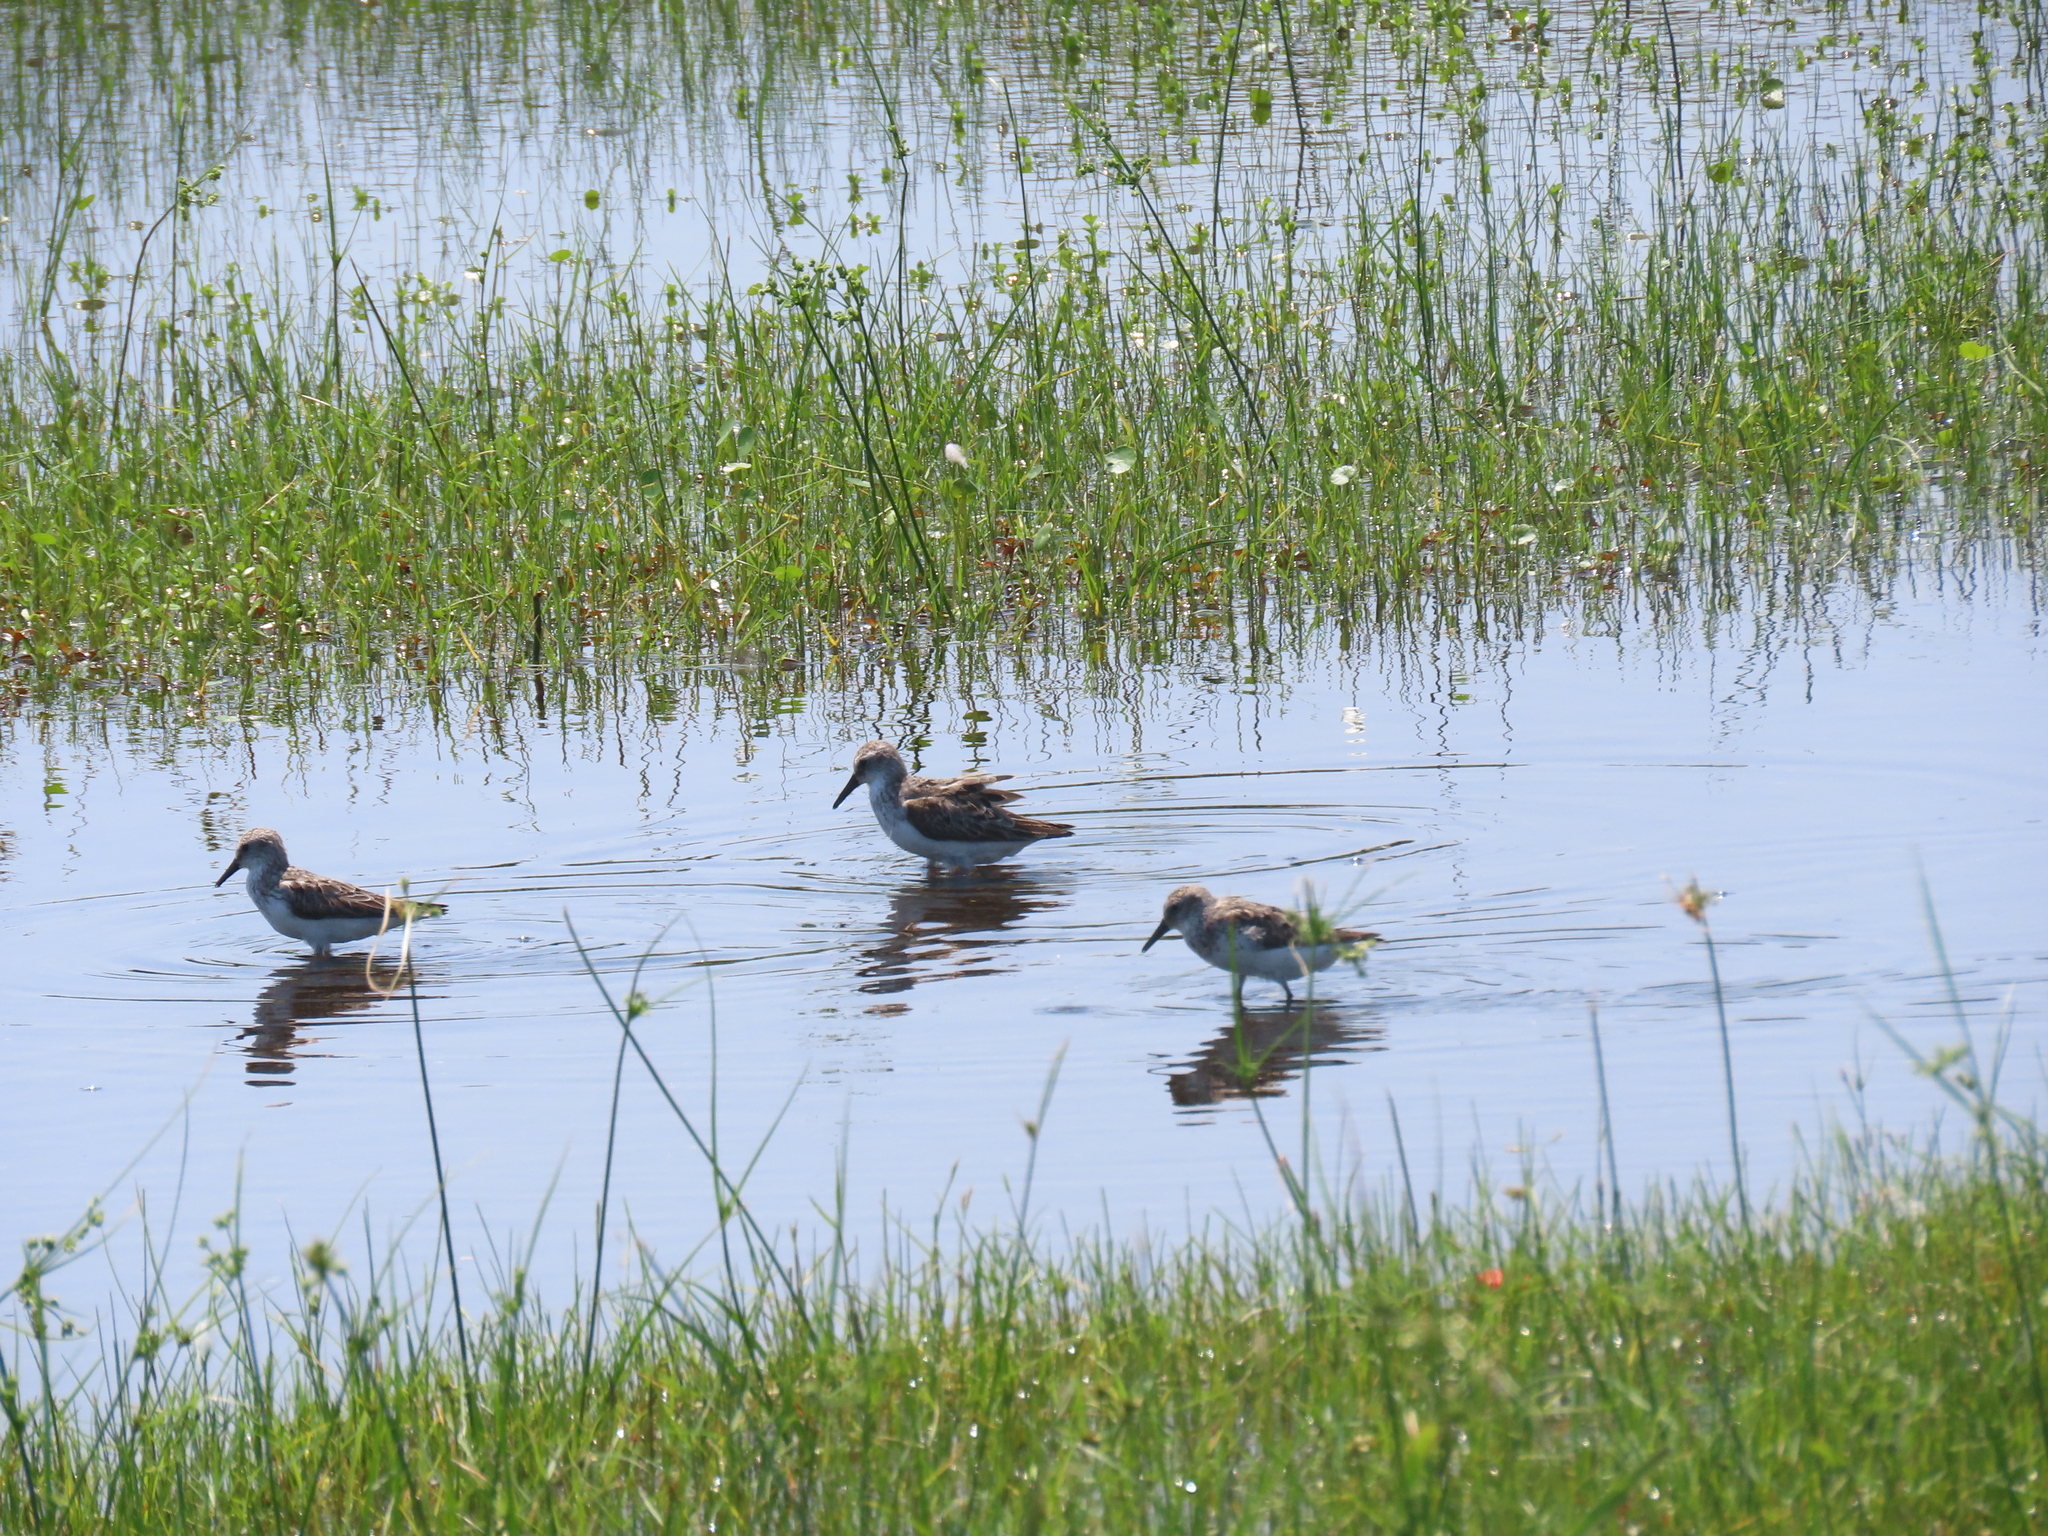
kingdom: Animalia
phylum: Chordata
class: Aves
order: Charadriiformes
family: Scolopacidae
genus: Calidris
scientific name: Calidris pusilla
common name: Semipalmated sandpiper
